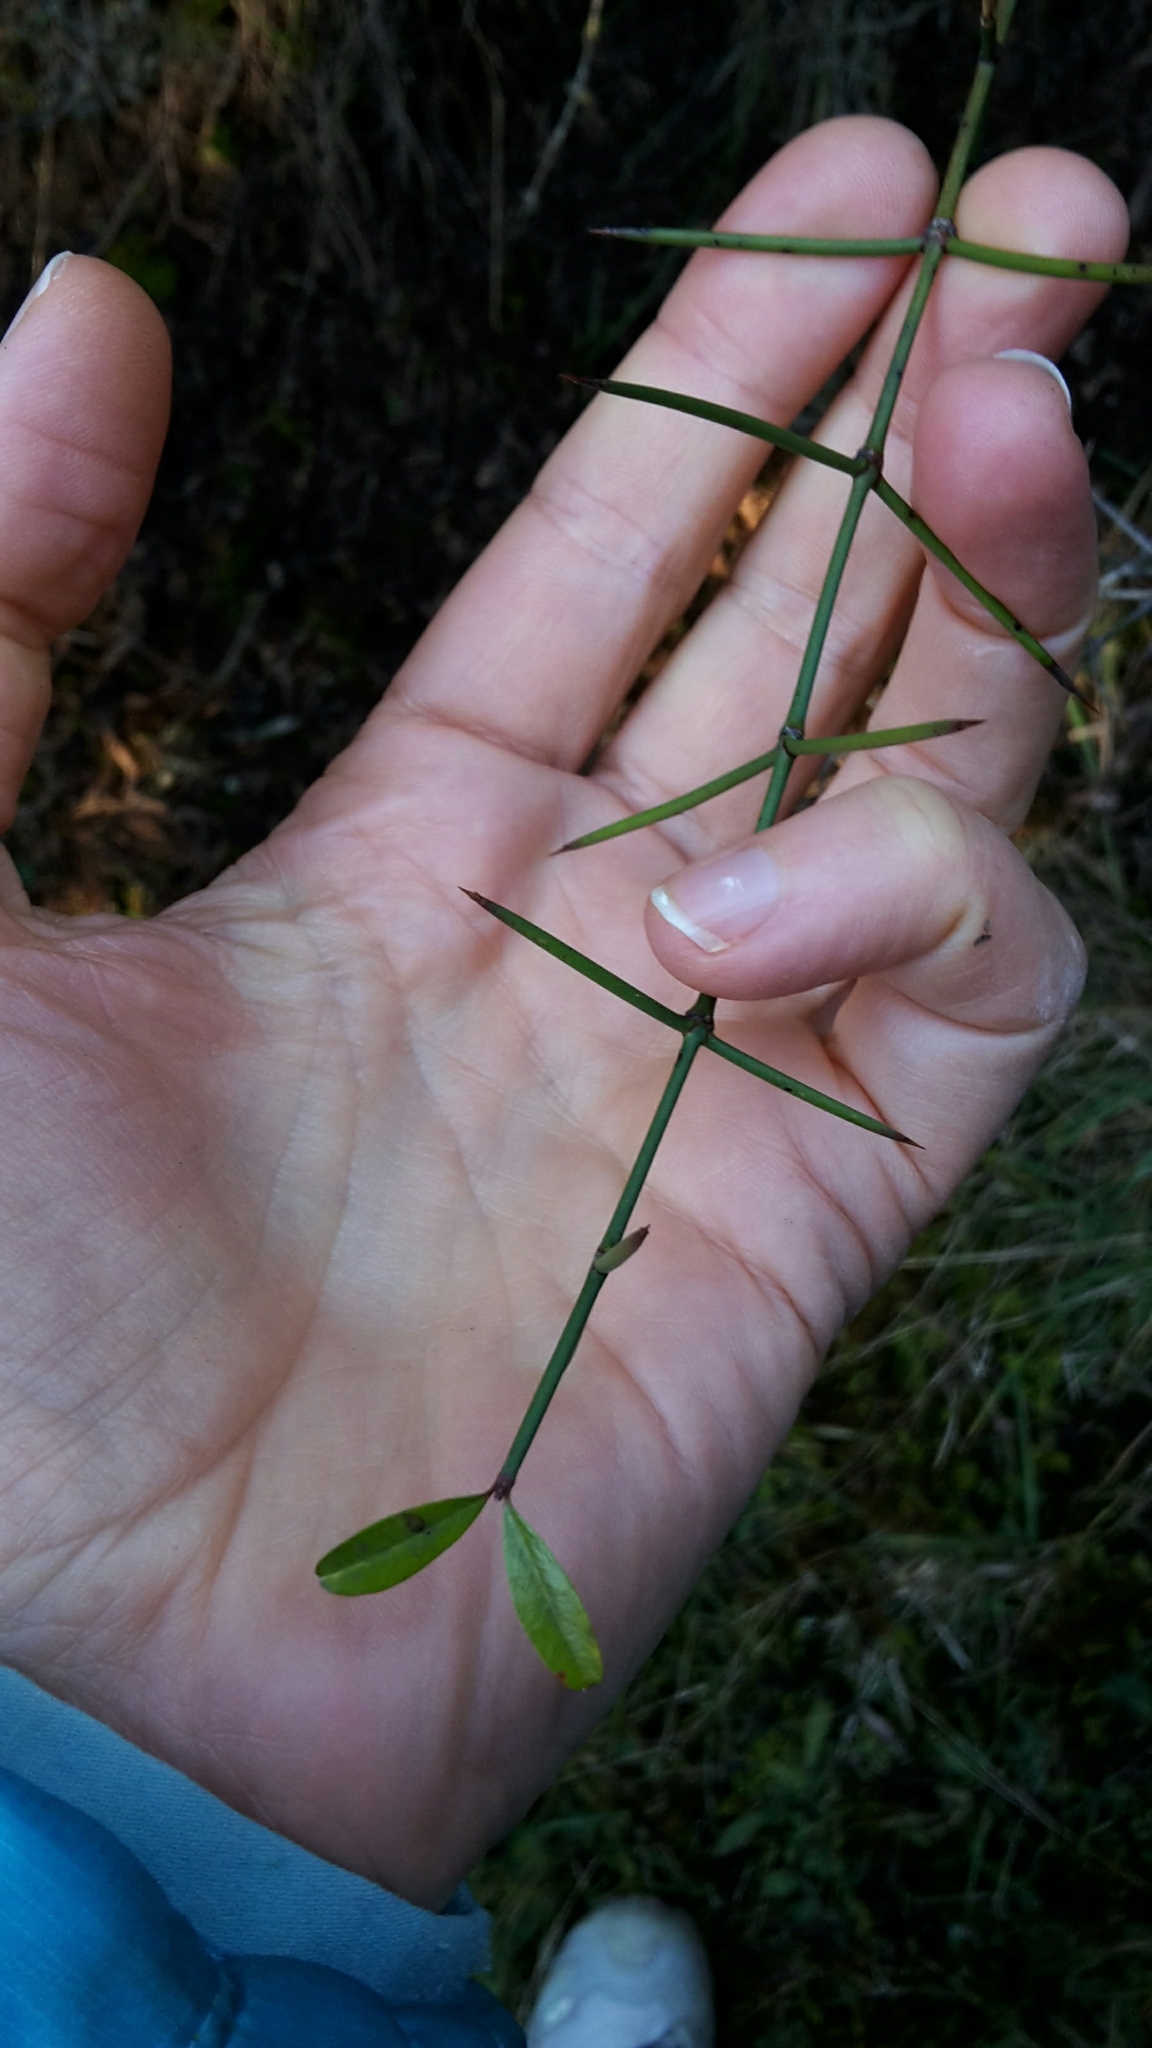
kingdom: Plantae
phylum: Tracheophyta
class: Magnoliopsida
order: Rosales
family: Rhamnaceae
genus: Discaria
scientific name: Discaria toumatou
